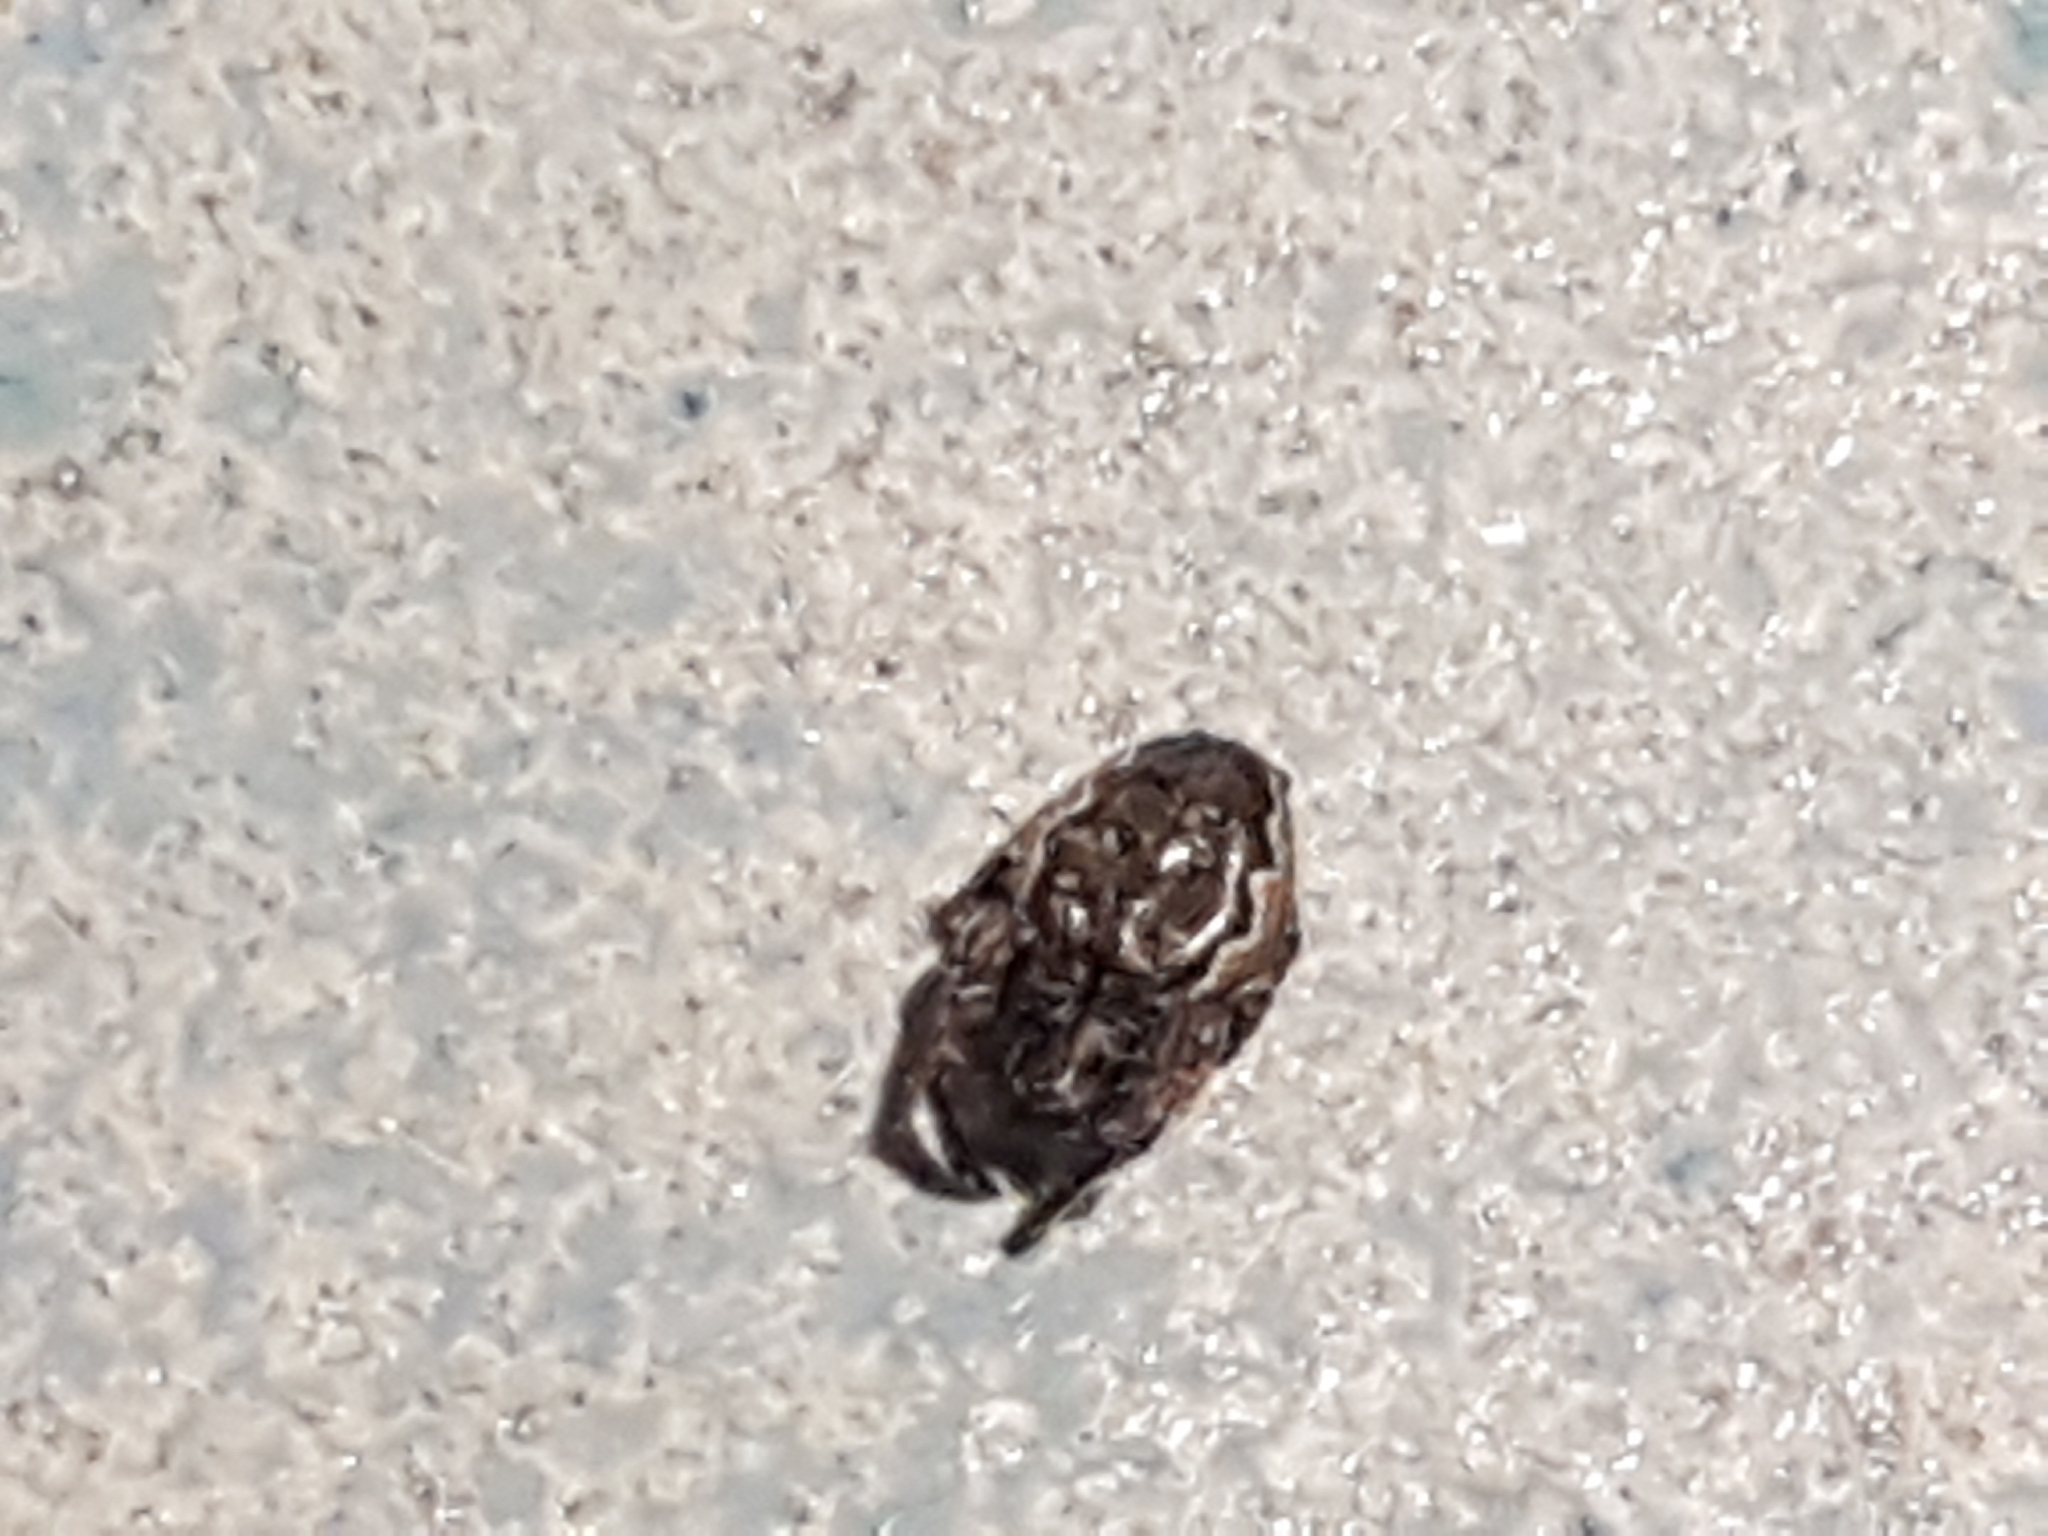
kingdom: Animalia
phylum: Arthropoda
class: Arachnida
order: Araneae
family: Araneidae
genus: Nuctenea
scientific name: Nuctenea umbratica
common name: Toad spider
